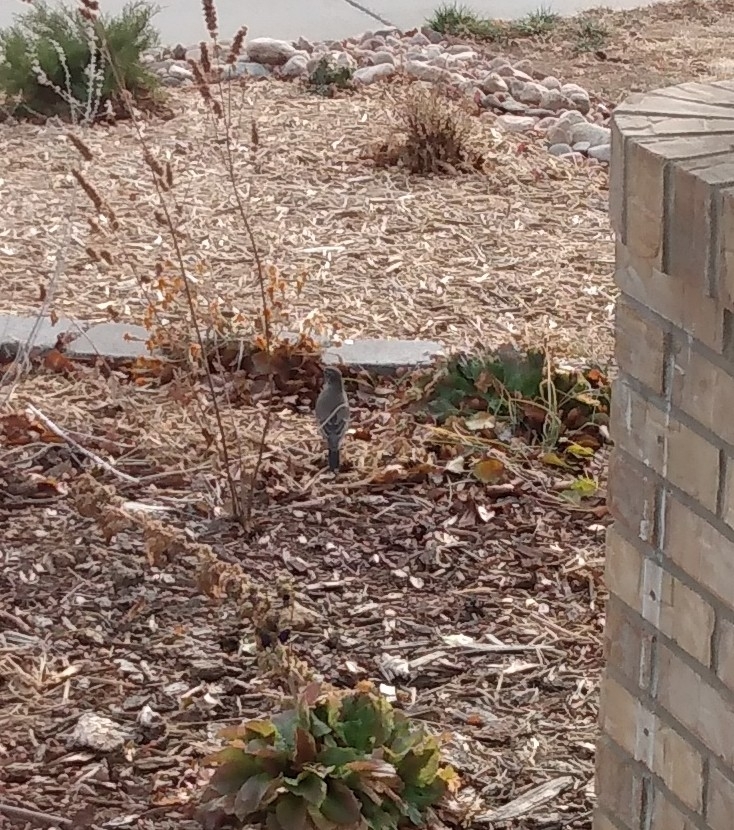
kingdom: Animalia
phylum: Chordata
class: Aves
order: Passeriformes
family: Turdidae
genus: Turdus
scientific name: Turdus migratorius
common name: American robin
